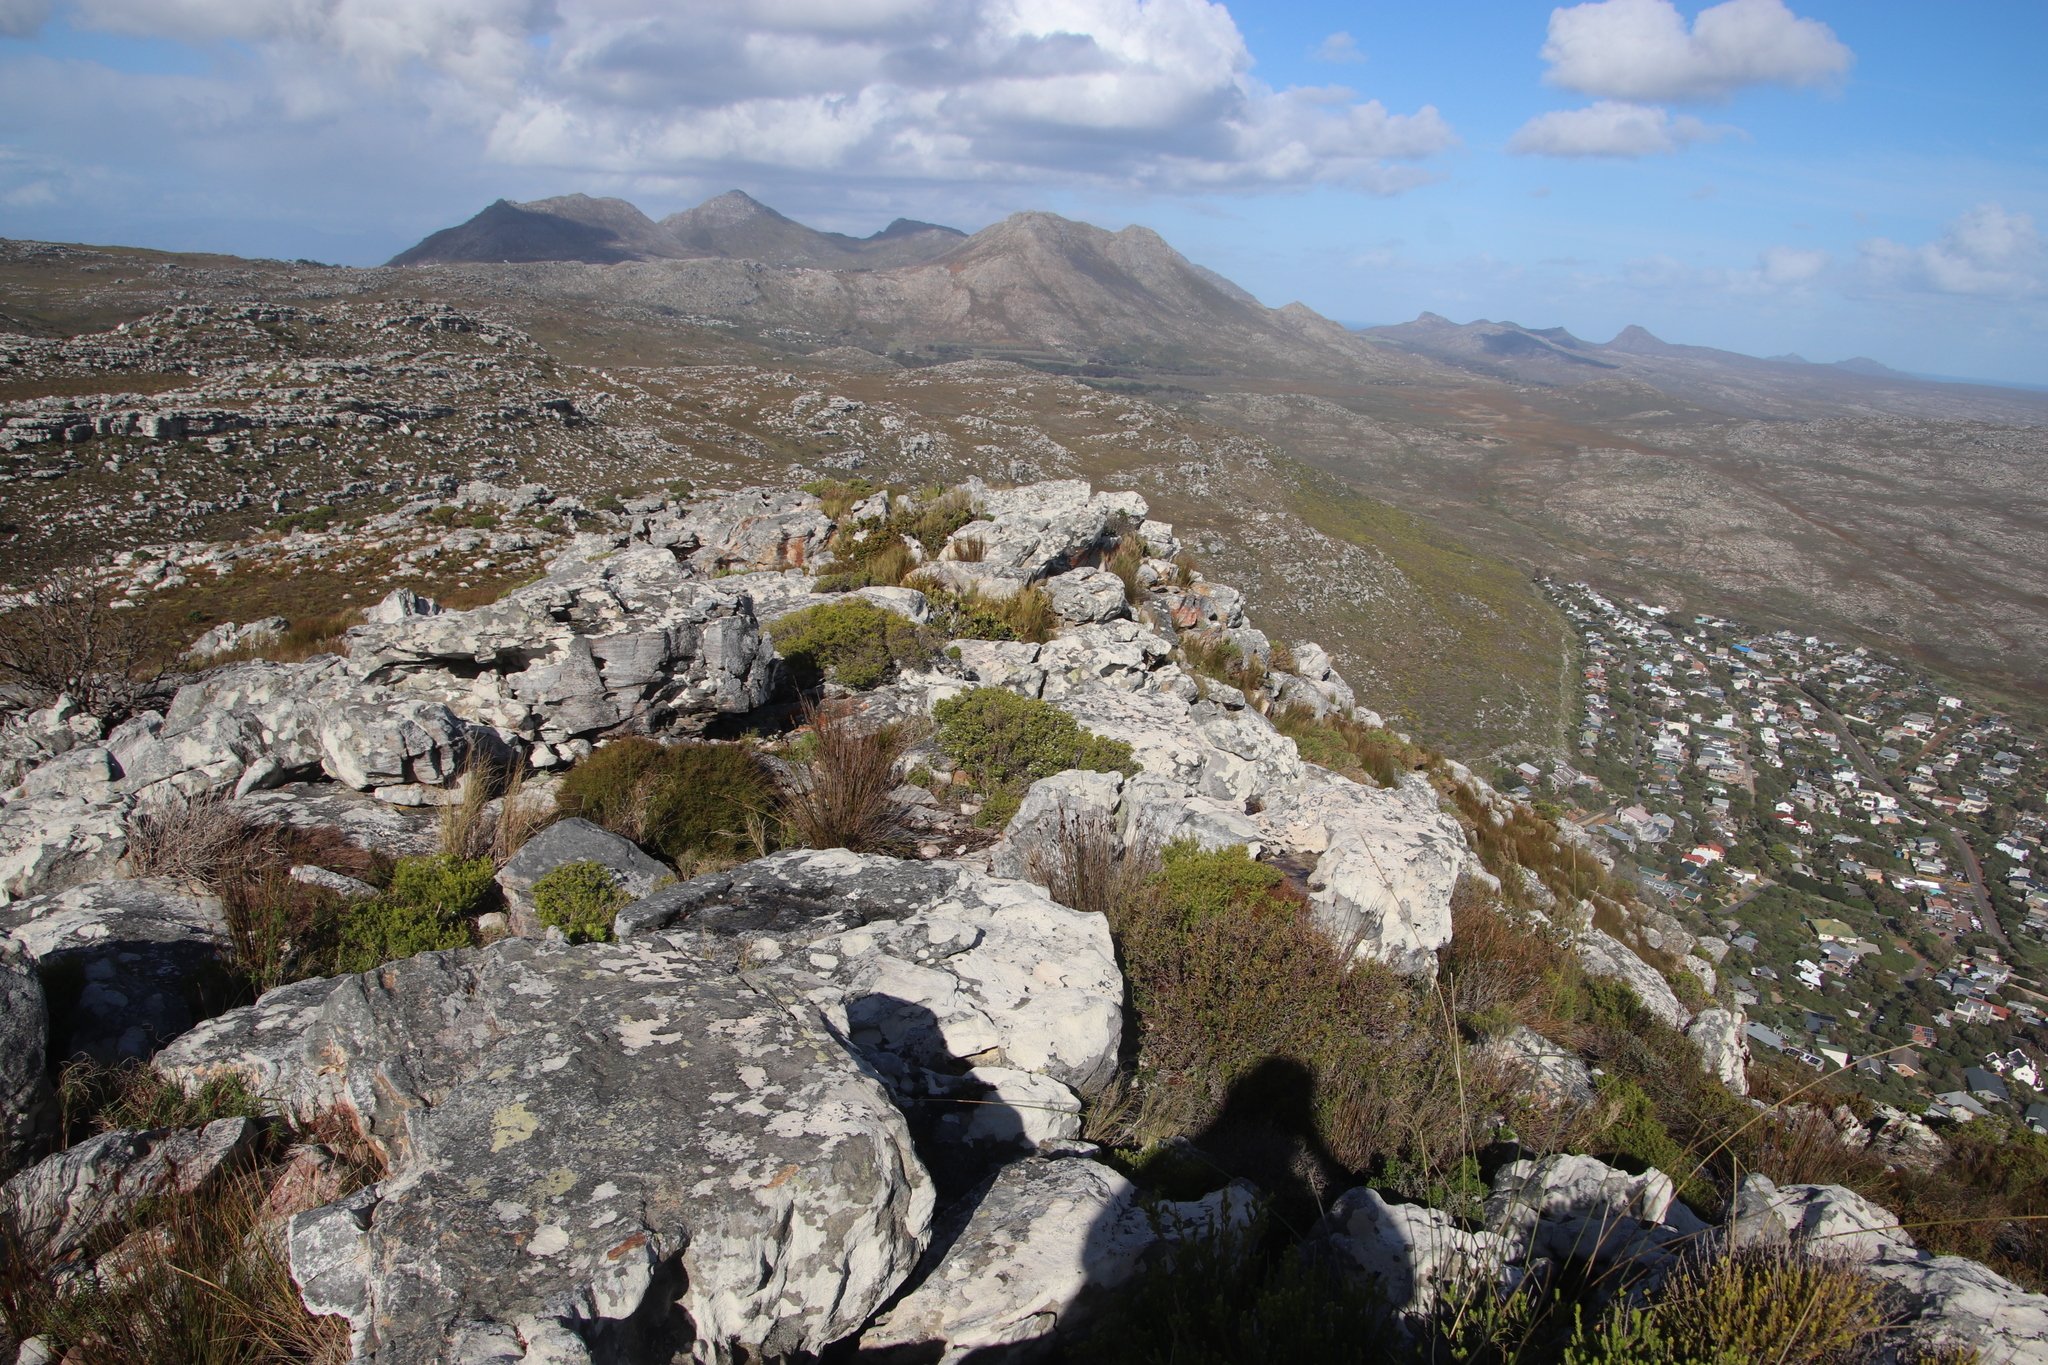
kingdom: Plantae
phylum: Tracheophyta
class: Magnoliopsida
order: Sapindales
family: Rutaceae
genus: Coleonema
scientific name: Coleonema album
